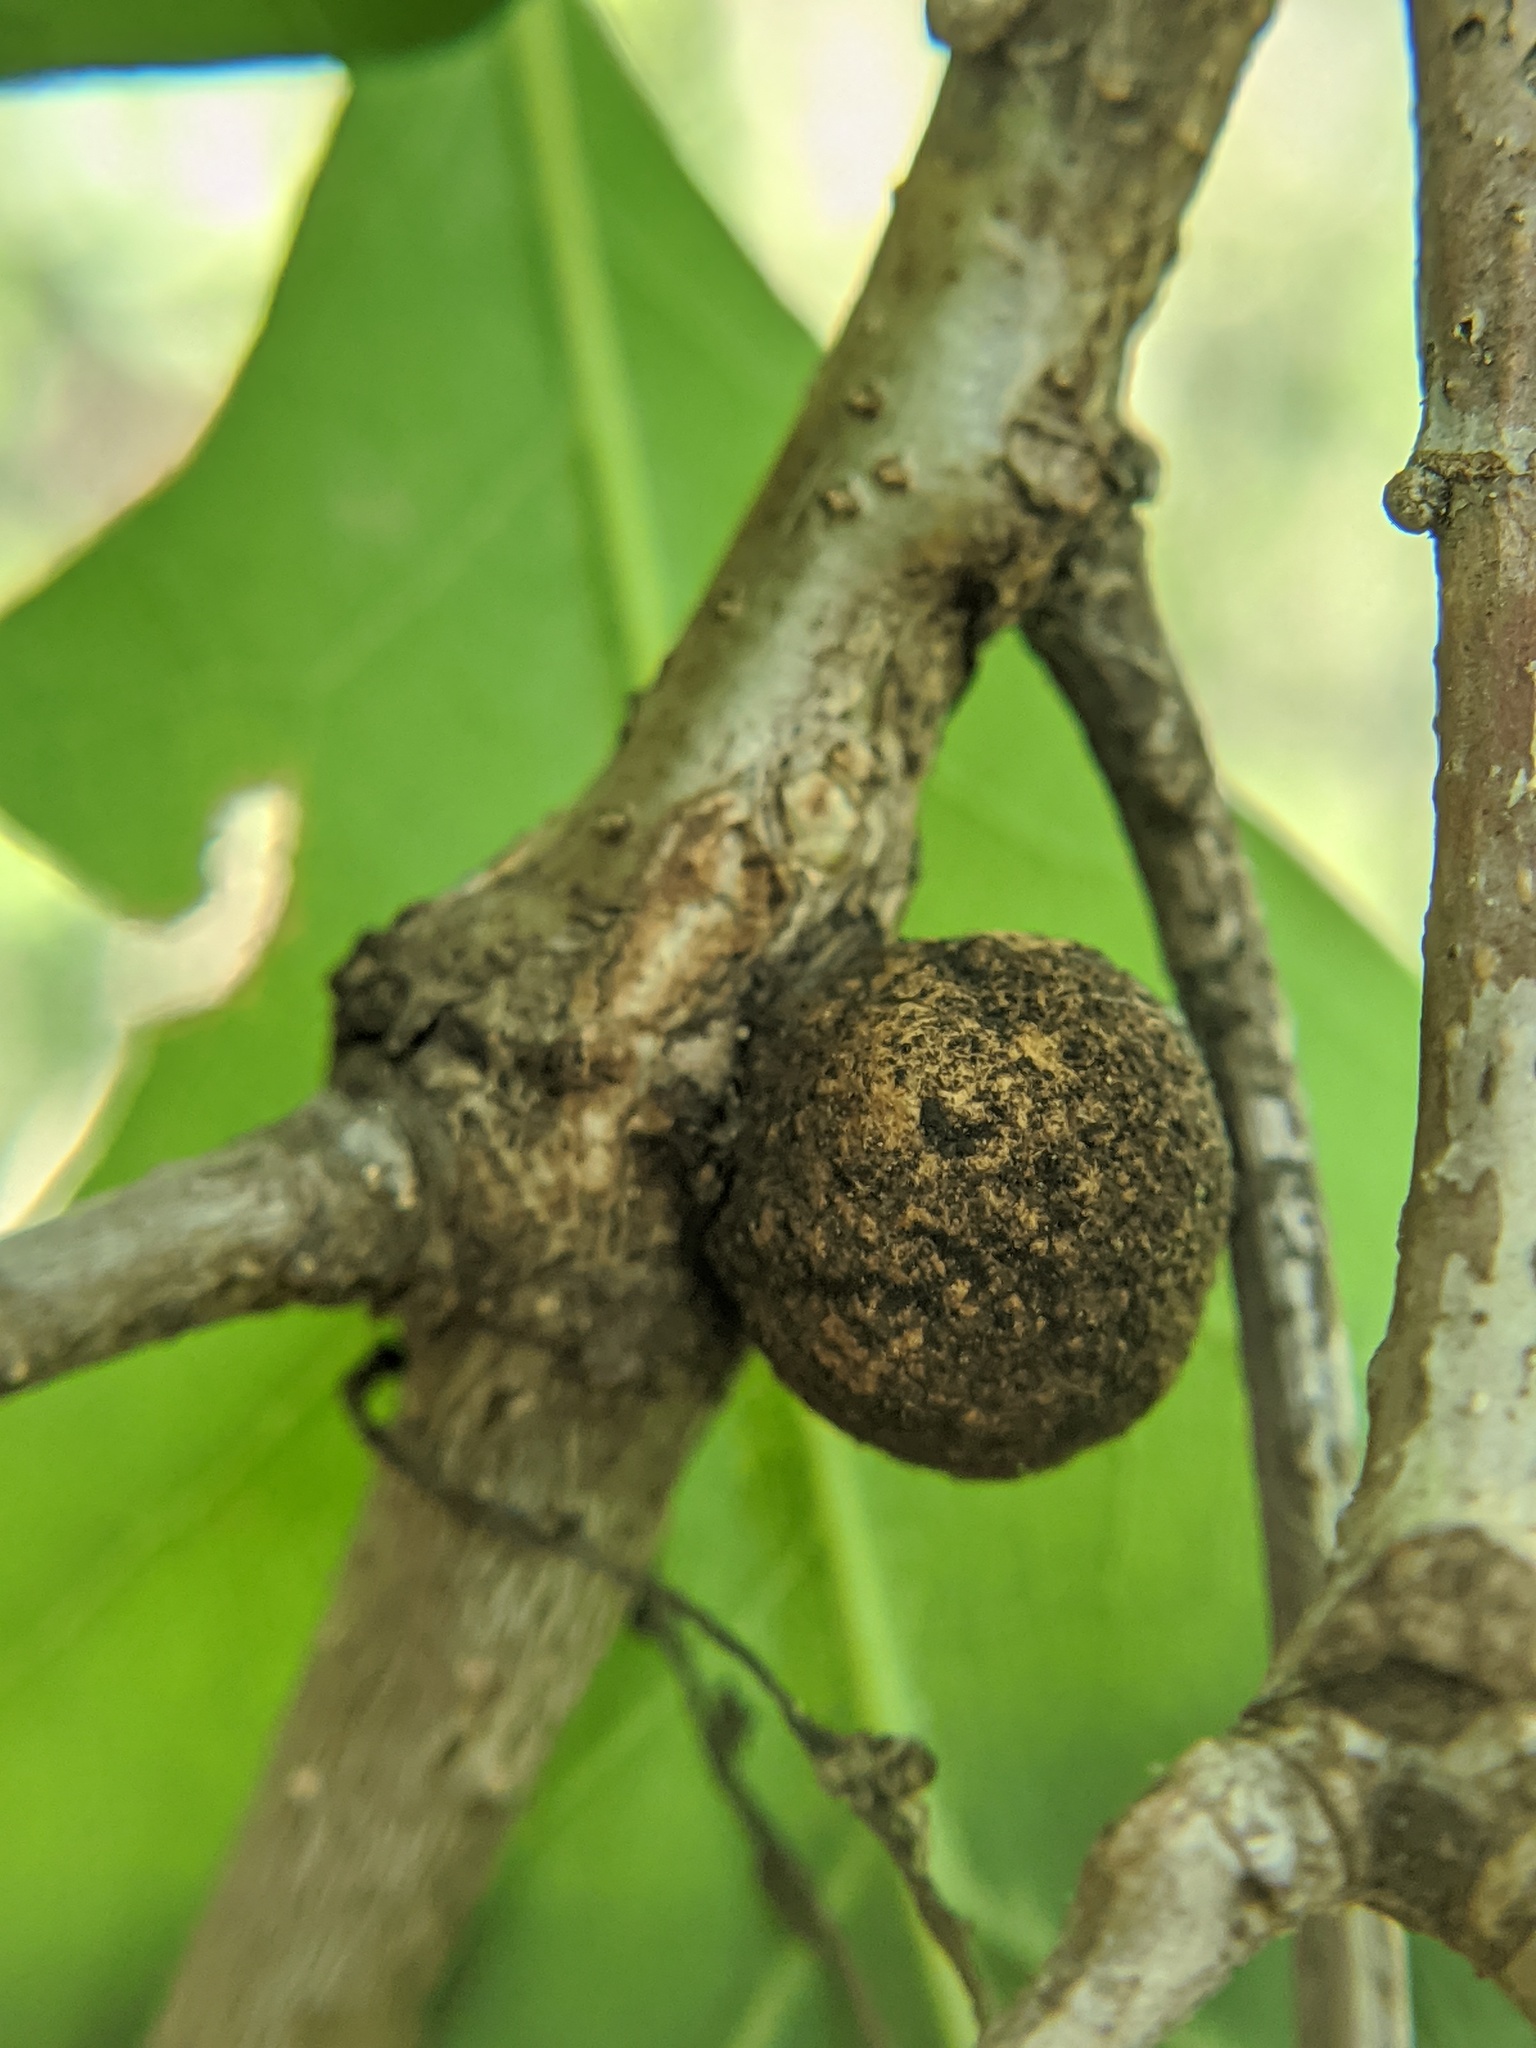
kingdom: Animalia
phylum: Arthropoda
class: Insecta
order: Hymenoptera
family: Cynipidae
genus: Disholcaspis
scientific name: Disholcaspis quercusglobulus
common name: Round bullet gall wasp
